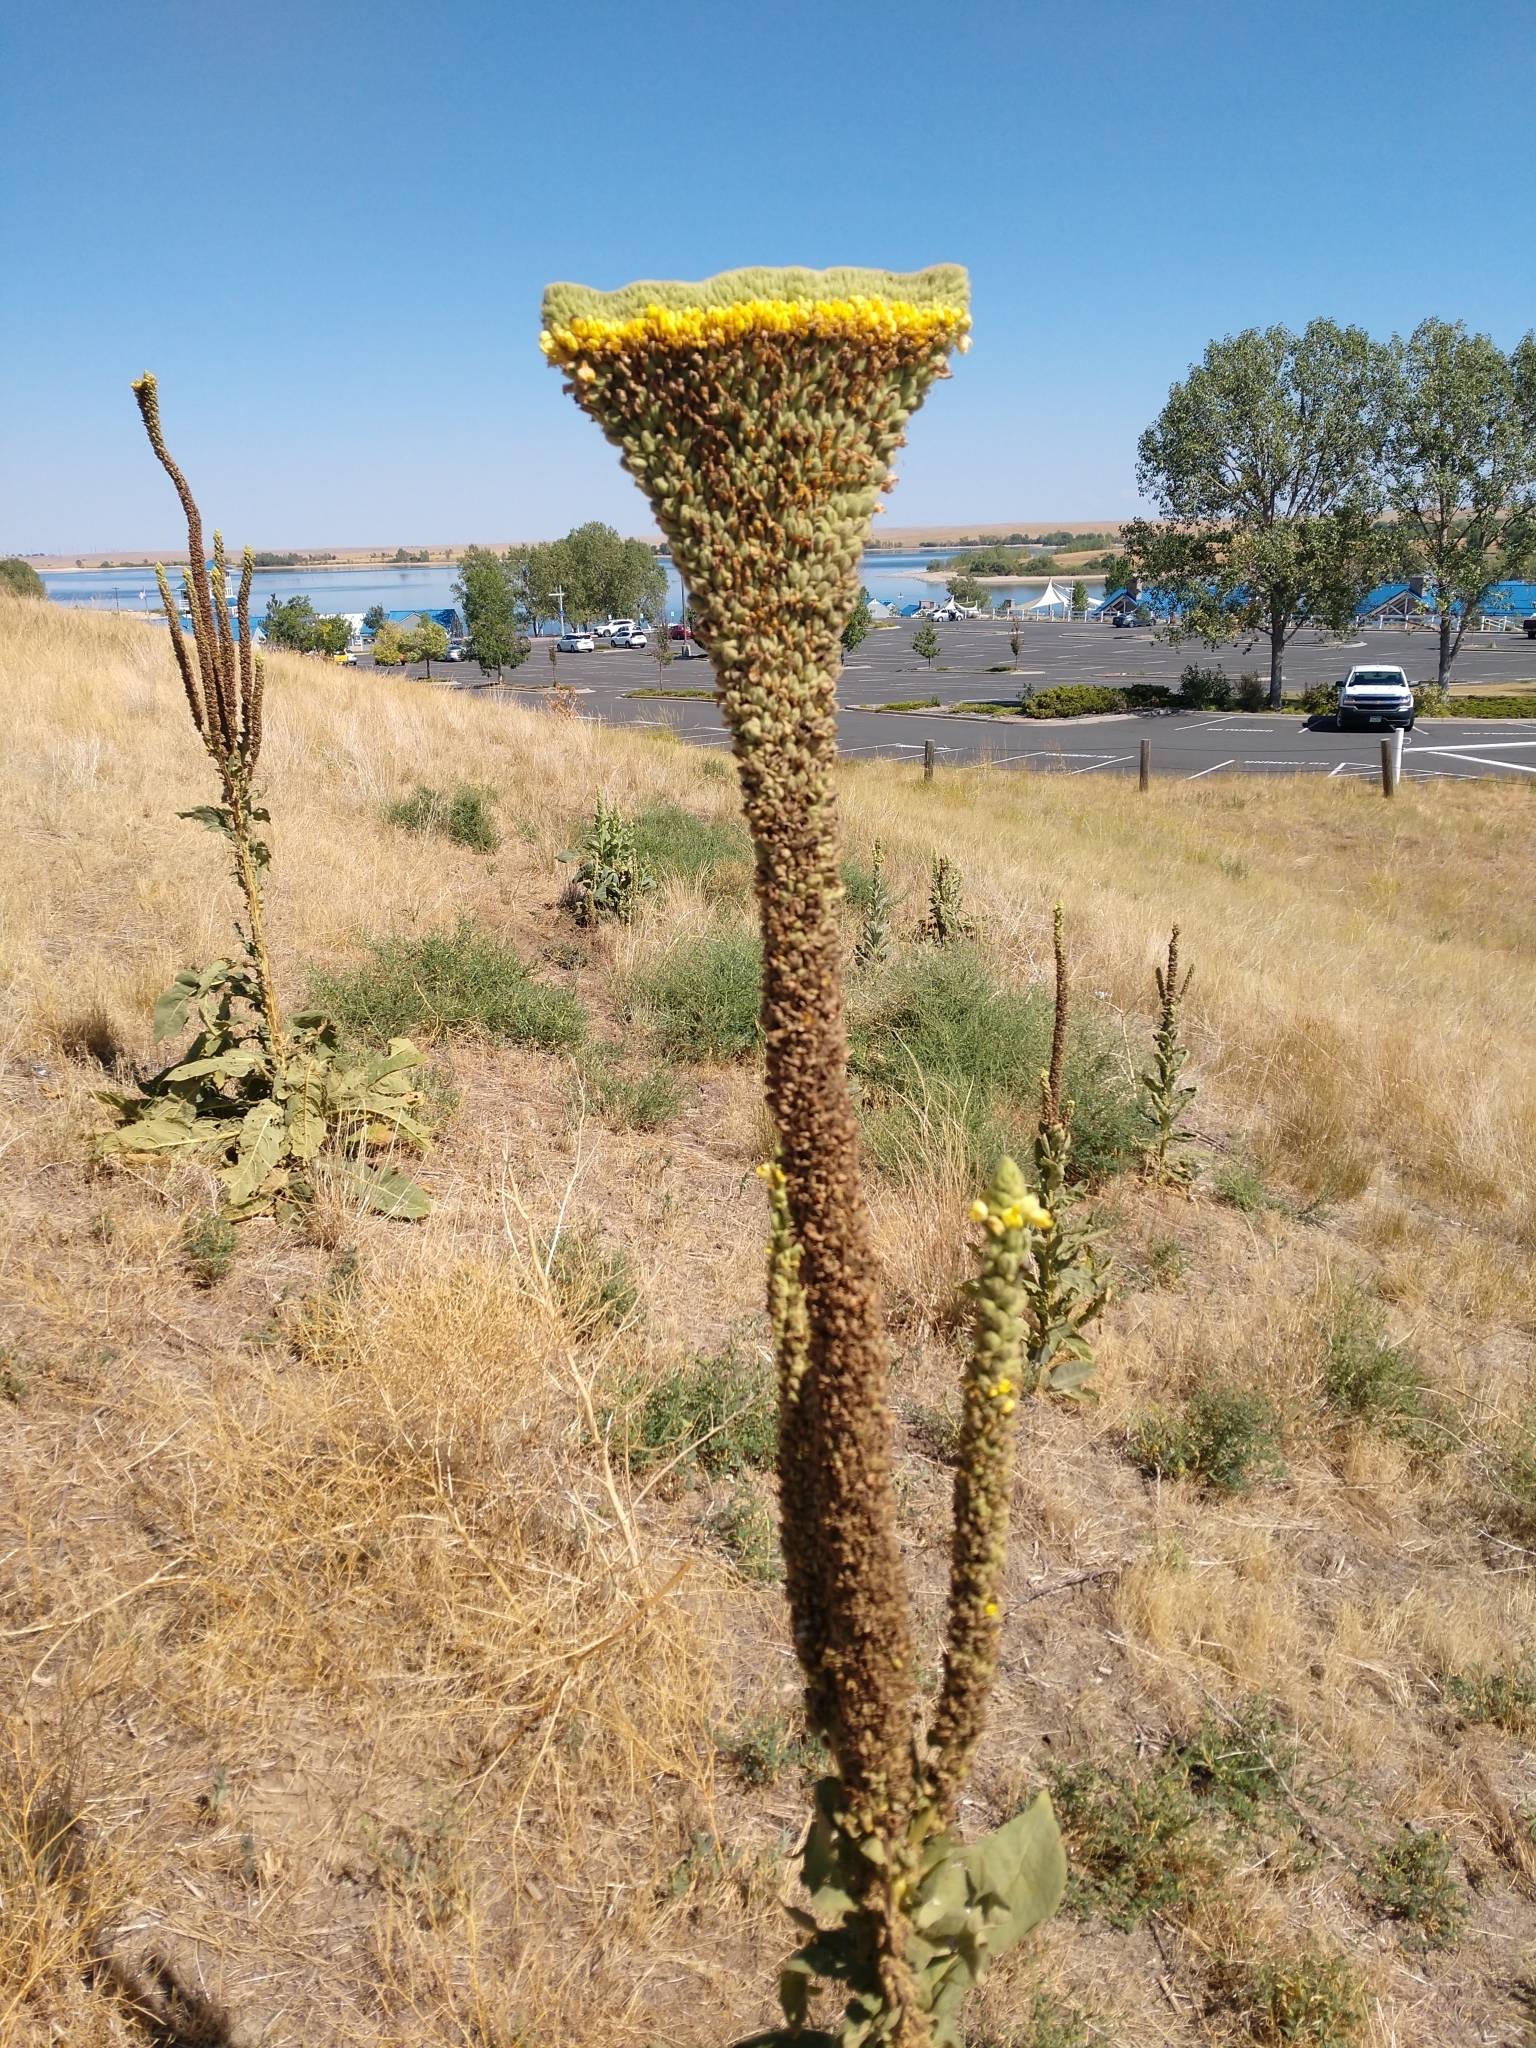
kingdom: Plantae
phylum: Tracheophyta
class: Magnoliopsida
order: Lamiales
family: Scrophulariaceae
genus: Verbascum
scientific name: Verbascum thapsus
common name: Common mullein
